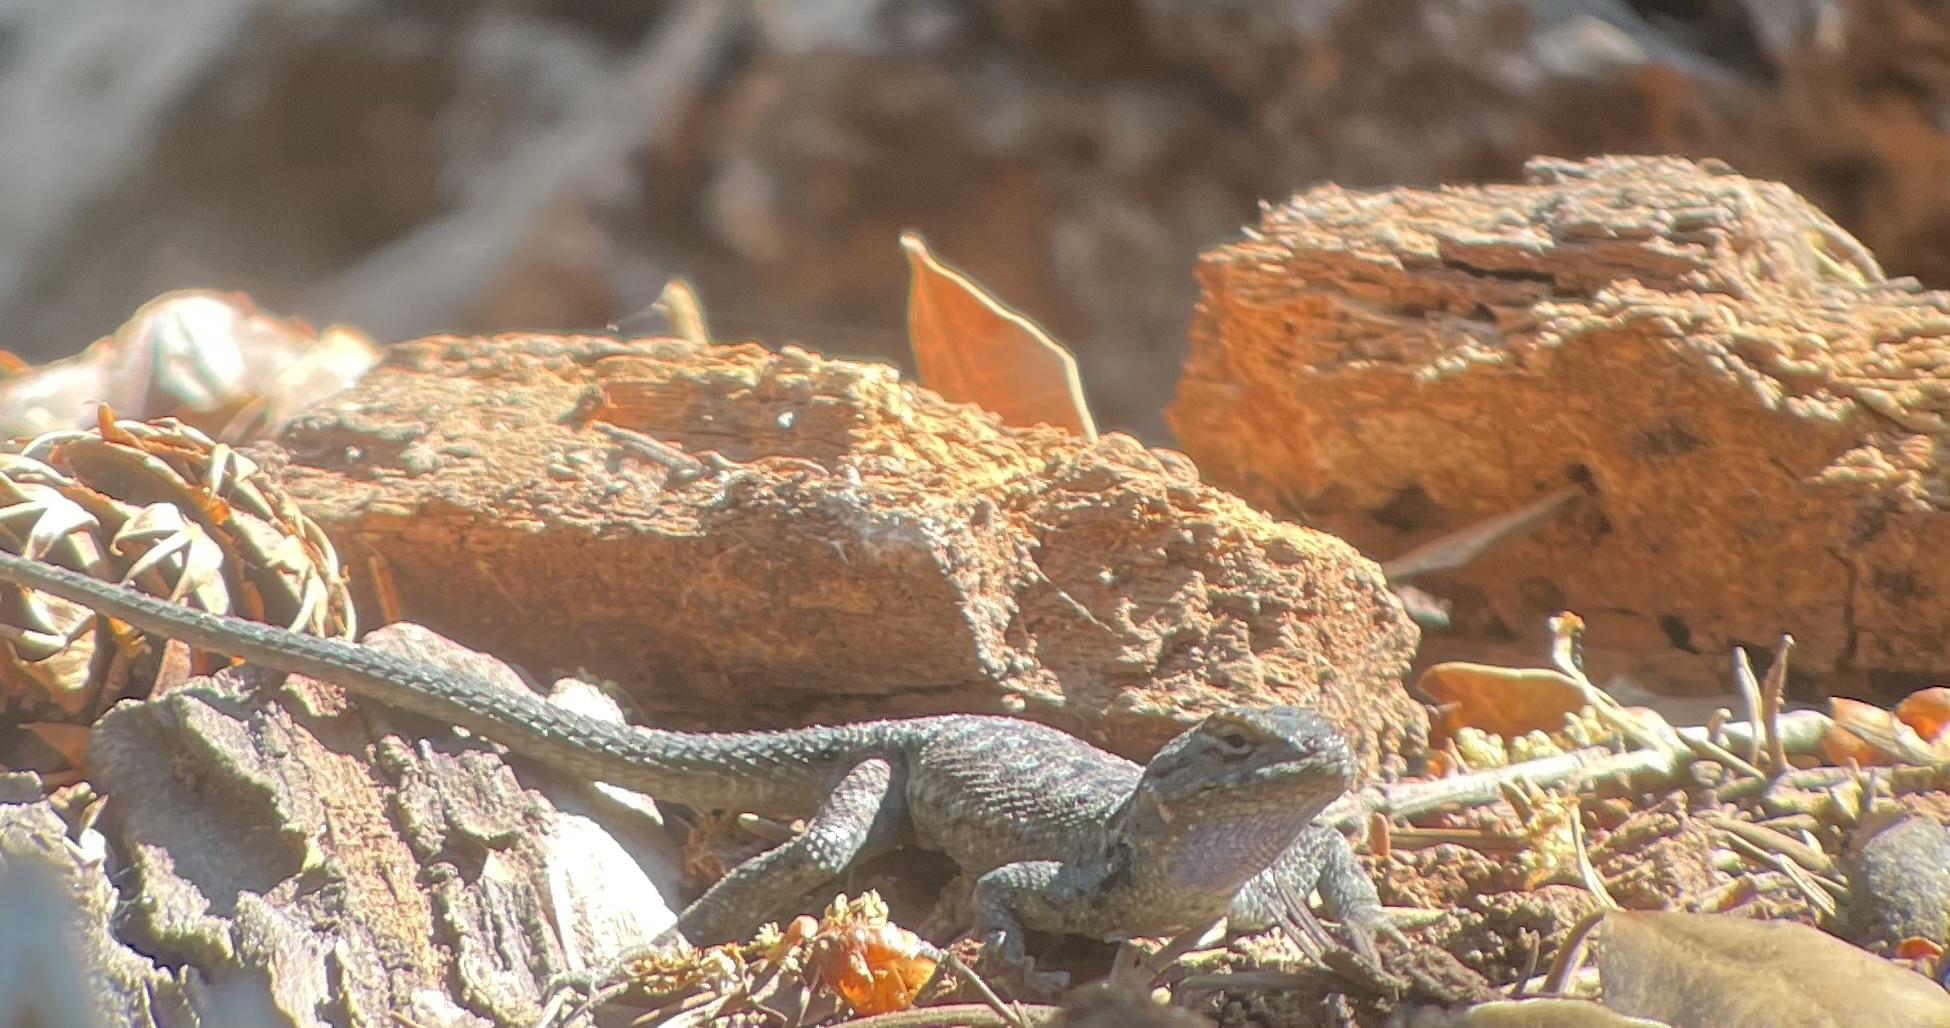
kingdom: Animalia
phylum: Chordata
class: Squamata
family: Phrynosomatidae
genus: Sceloporus
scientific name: Sceloporus occidentalis
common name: Western fence lizard
